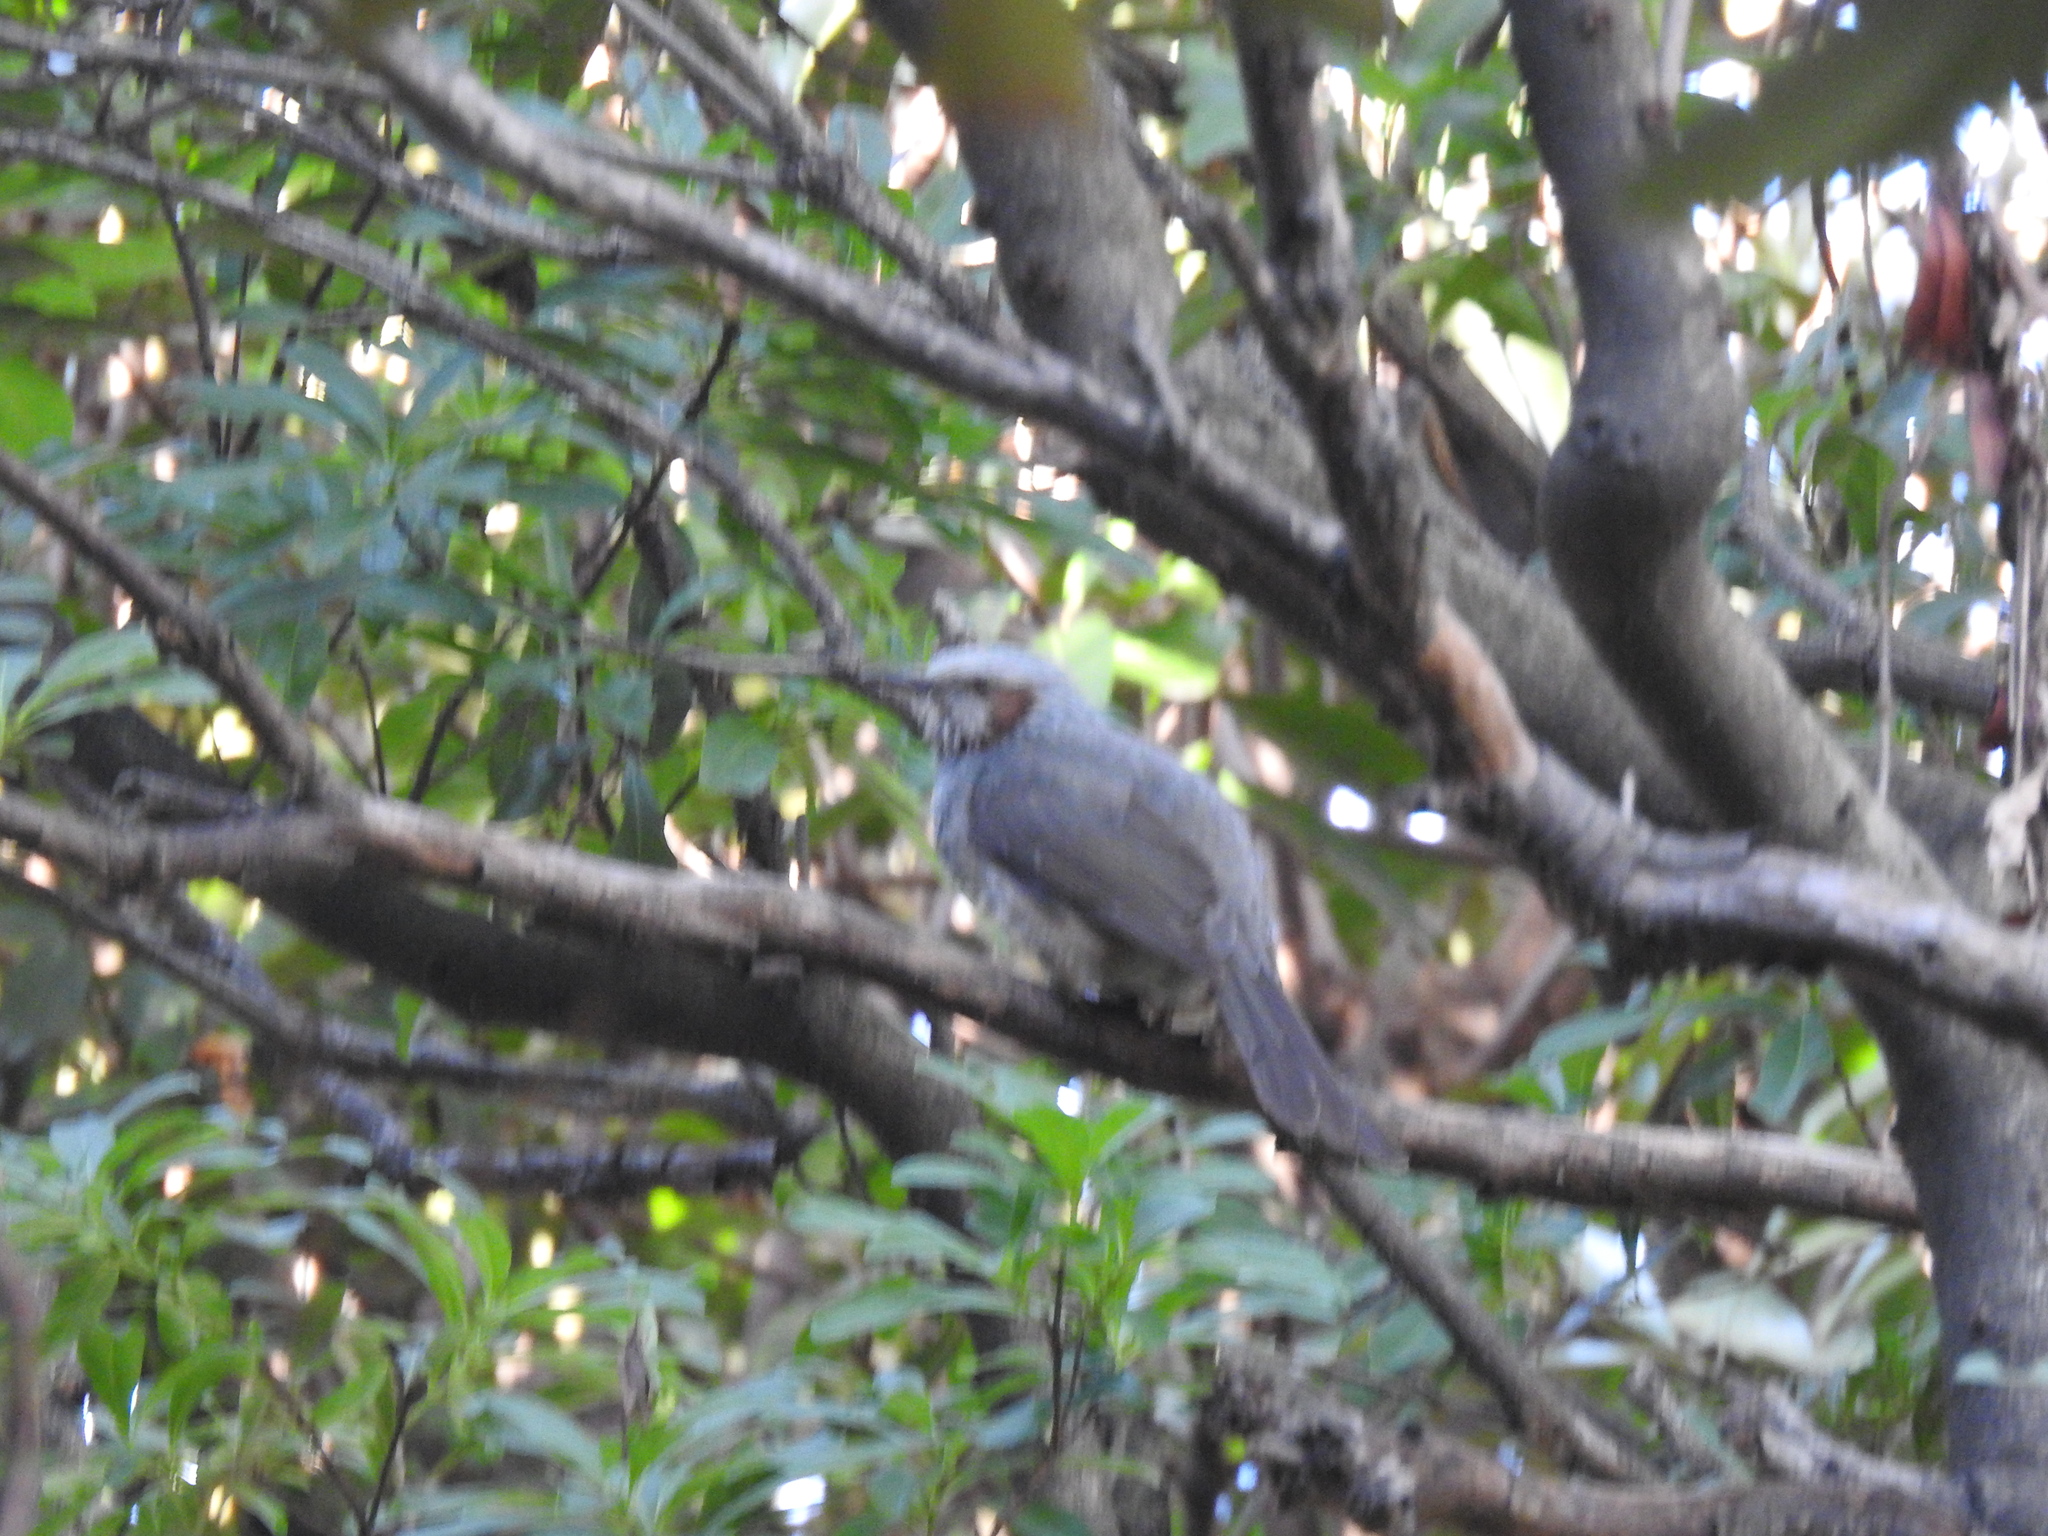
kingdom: Animalia
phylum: Chordata
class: Aves
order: Passeriformes
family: Pycnonotidae
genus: Hypsipetes
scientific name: Hypsipetes amaurotis
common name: Brown-eared bulbul
